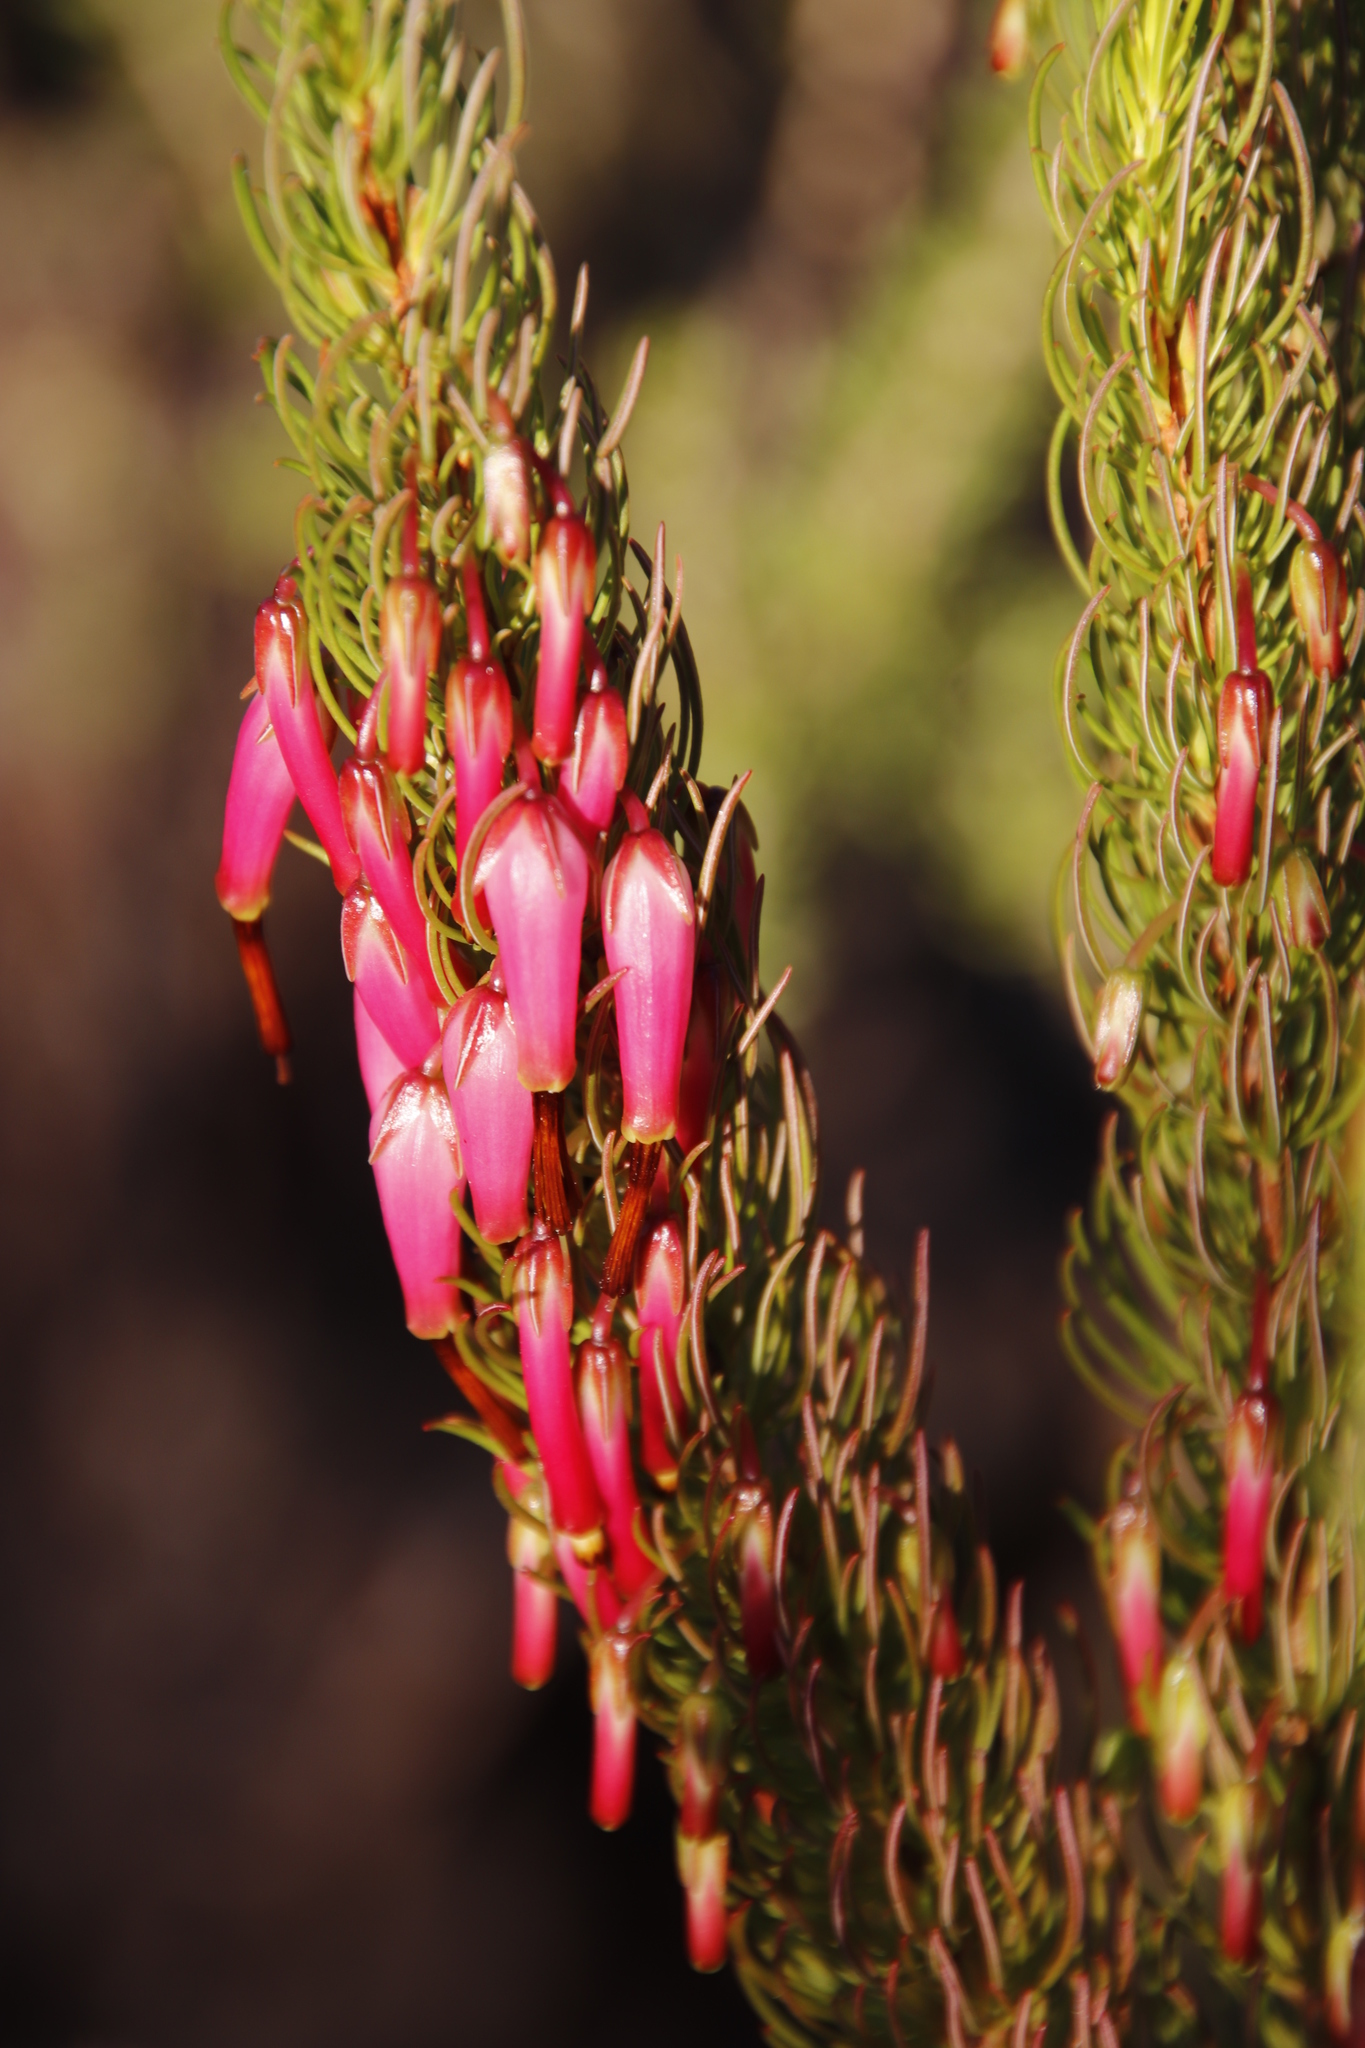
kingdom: Plantae
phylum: Tracheophyta
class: Magnoliopsida
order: Ericales
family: Ericaceae
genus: Erica
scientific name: Erica plukenetii
